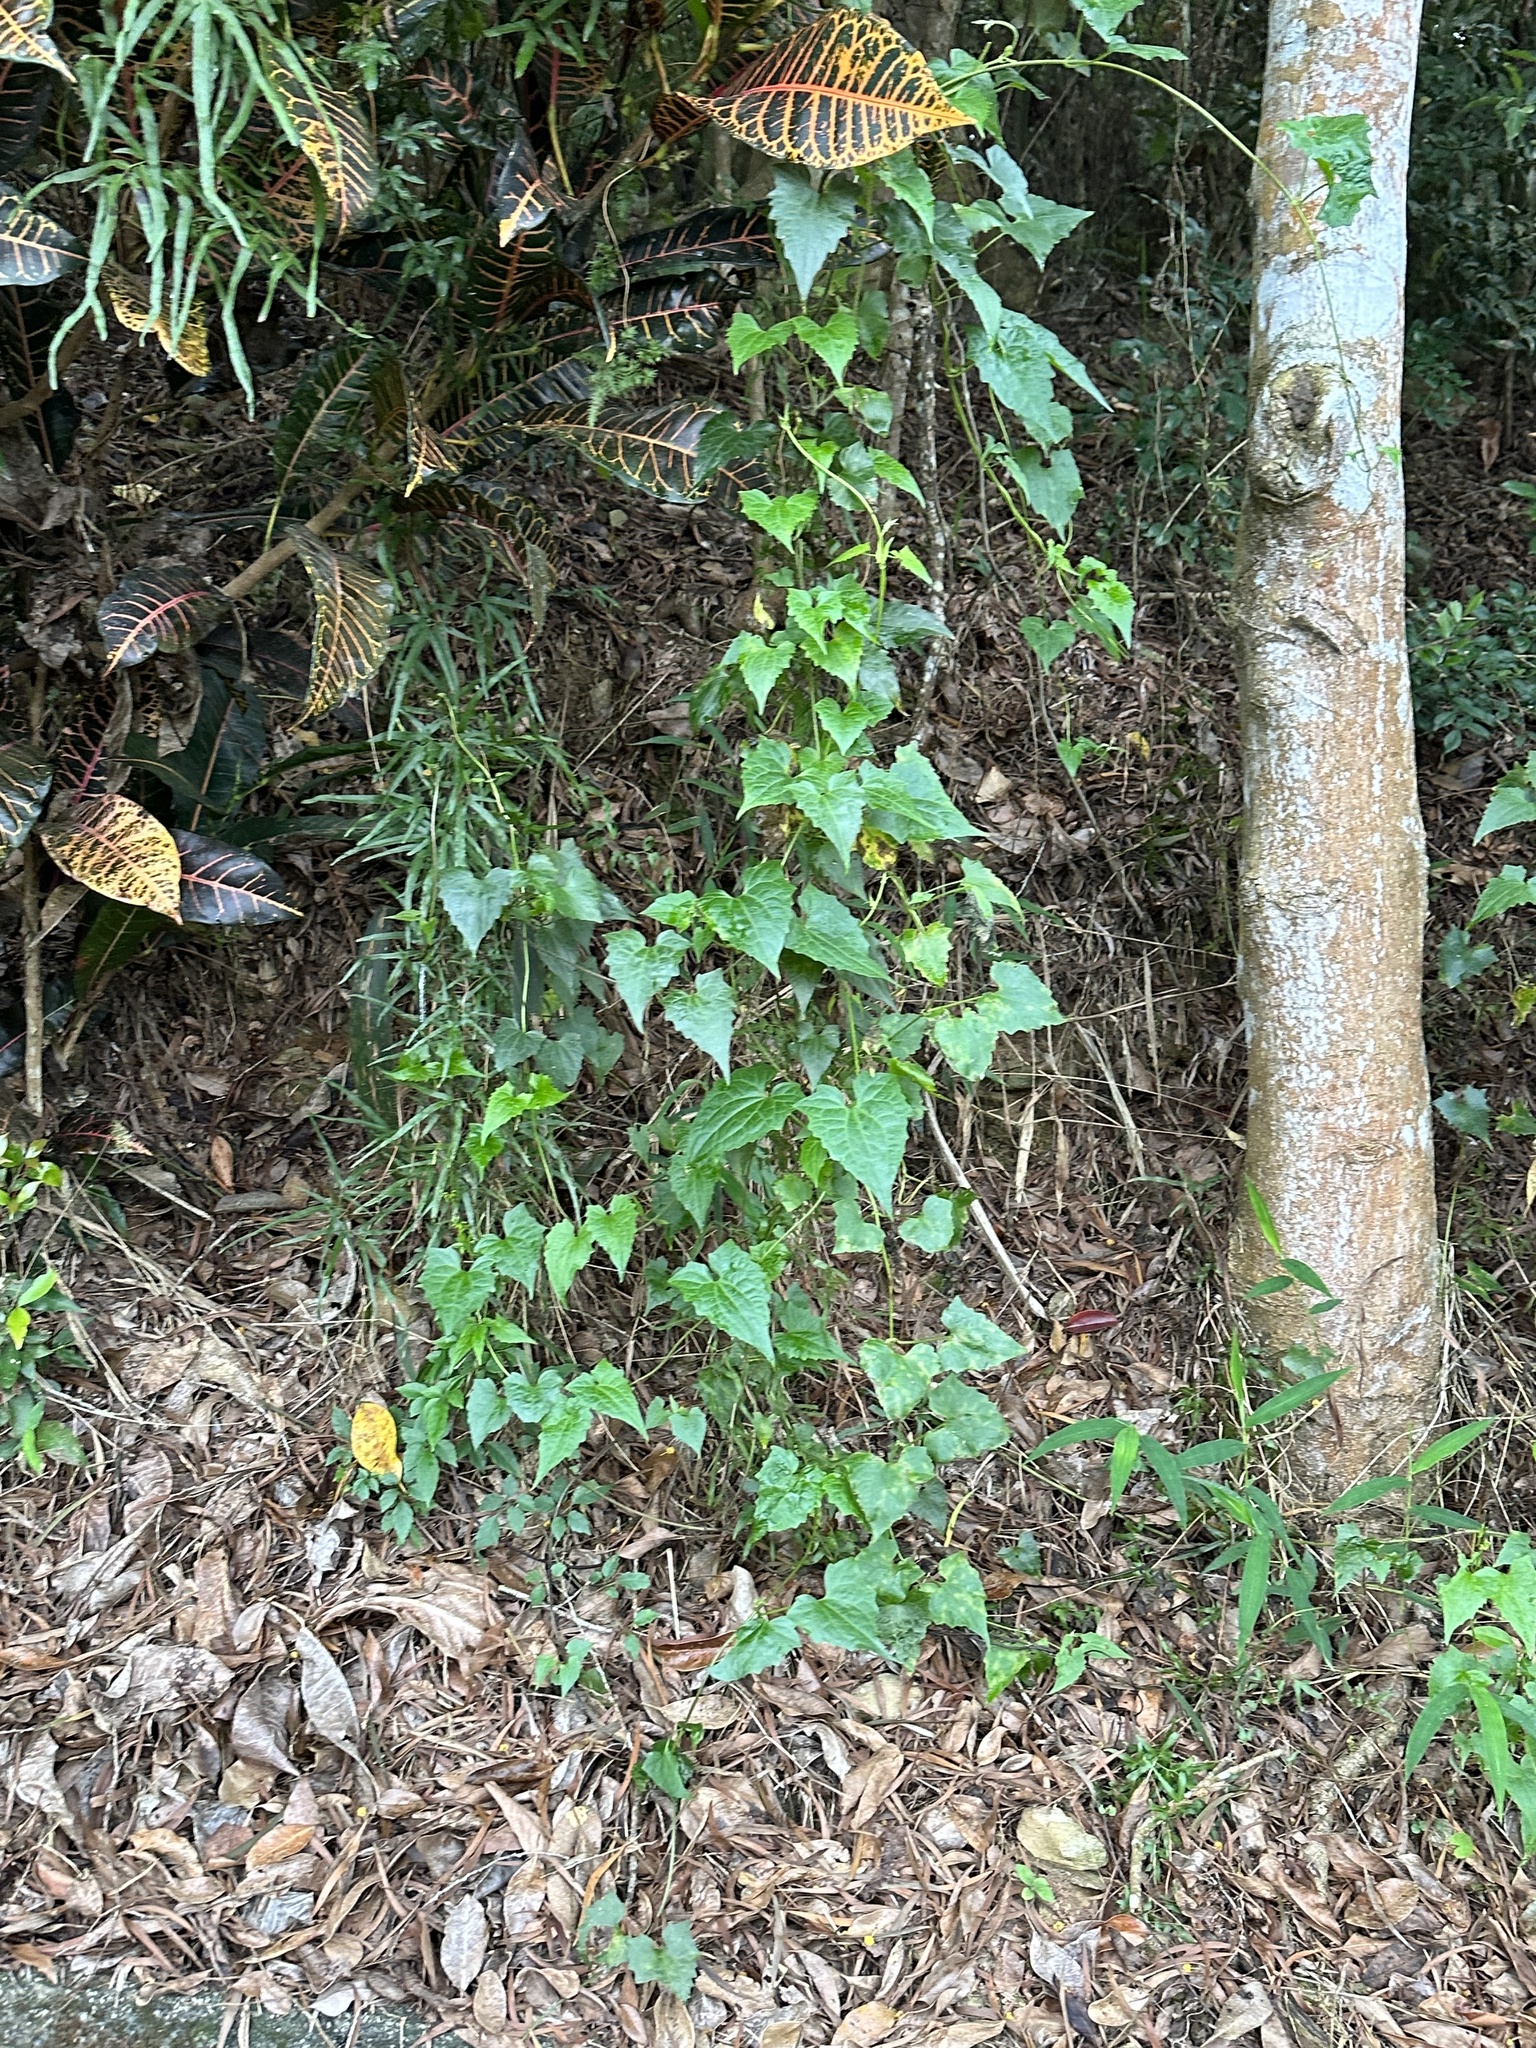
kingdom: Plantae
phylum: Tracheophyta
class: Magnoliopsida
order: Asterales
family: Asteraceae
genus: Mikania
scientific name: Mikania micrantha
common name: Mile-a-minute
